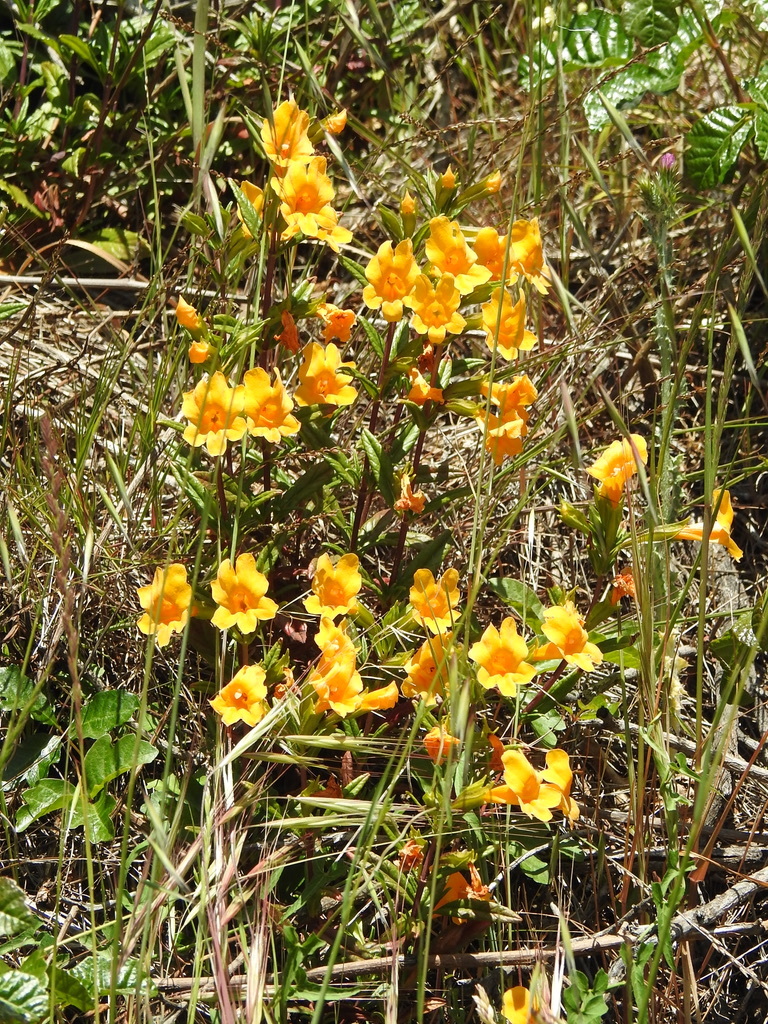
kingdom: Plantae
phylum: Tracheophyta
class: Magnoliopsida
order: Lamiales
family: Phrymaceae
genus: Diplacus
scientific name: Diplacus aurantiacus
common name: Bush monkey-flower
